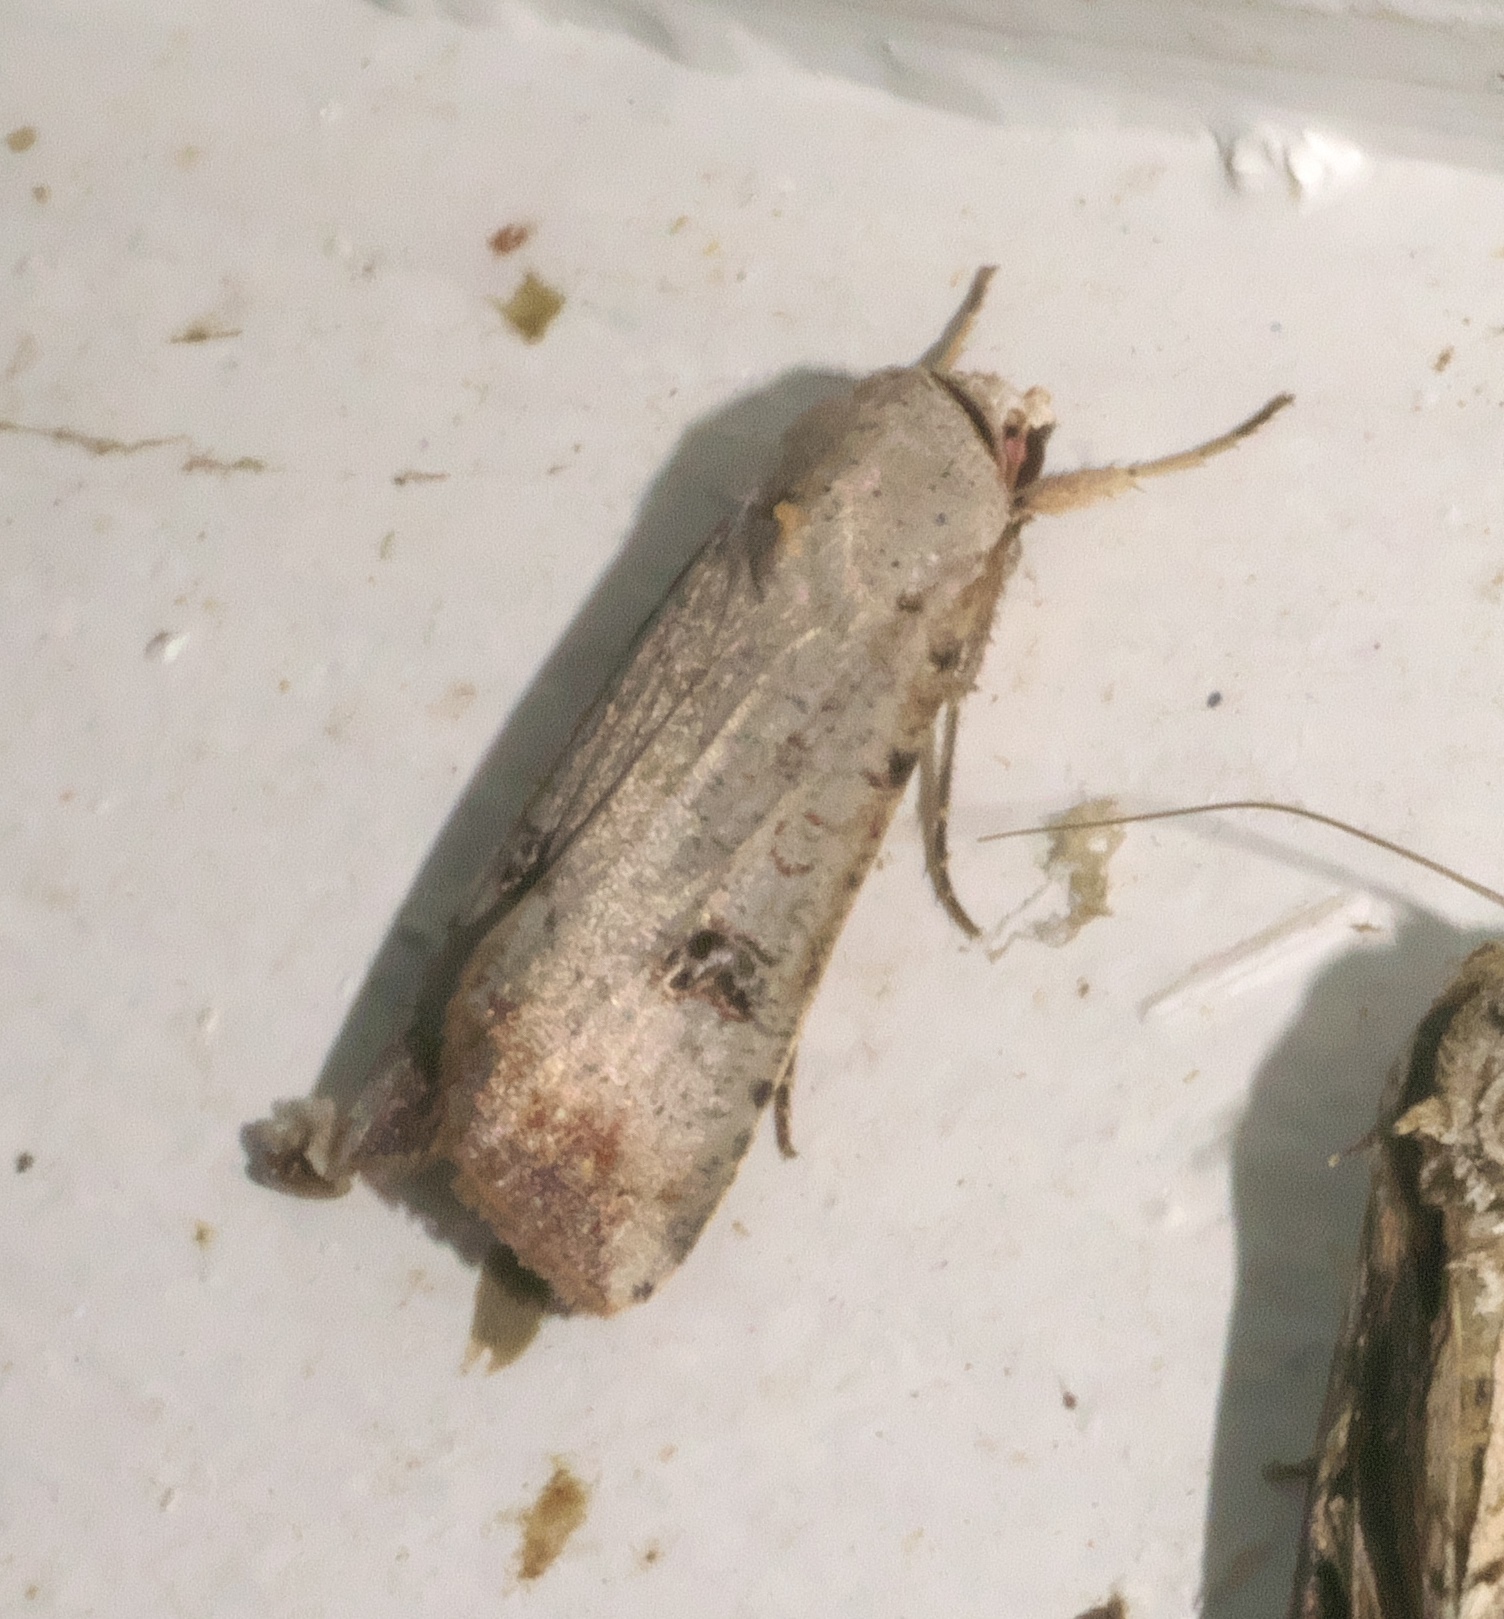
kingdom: Animalia
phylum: Arthropoda
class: Insecta
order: Lepidoptera
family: Noctuidae
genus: Anicla
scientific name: Anicla infecta
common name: Green cutworm
